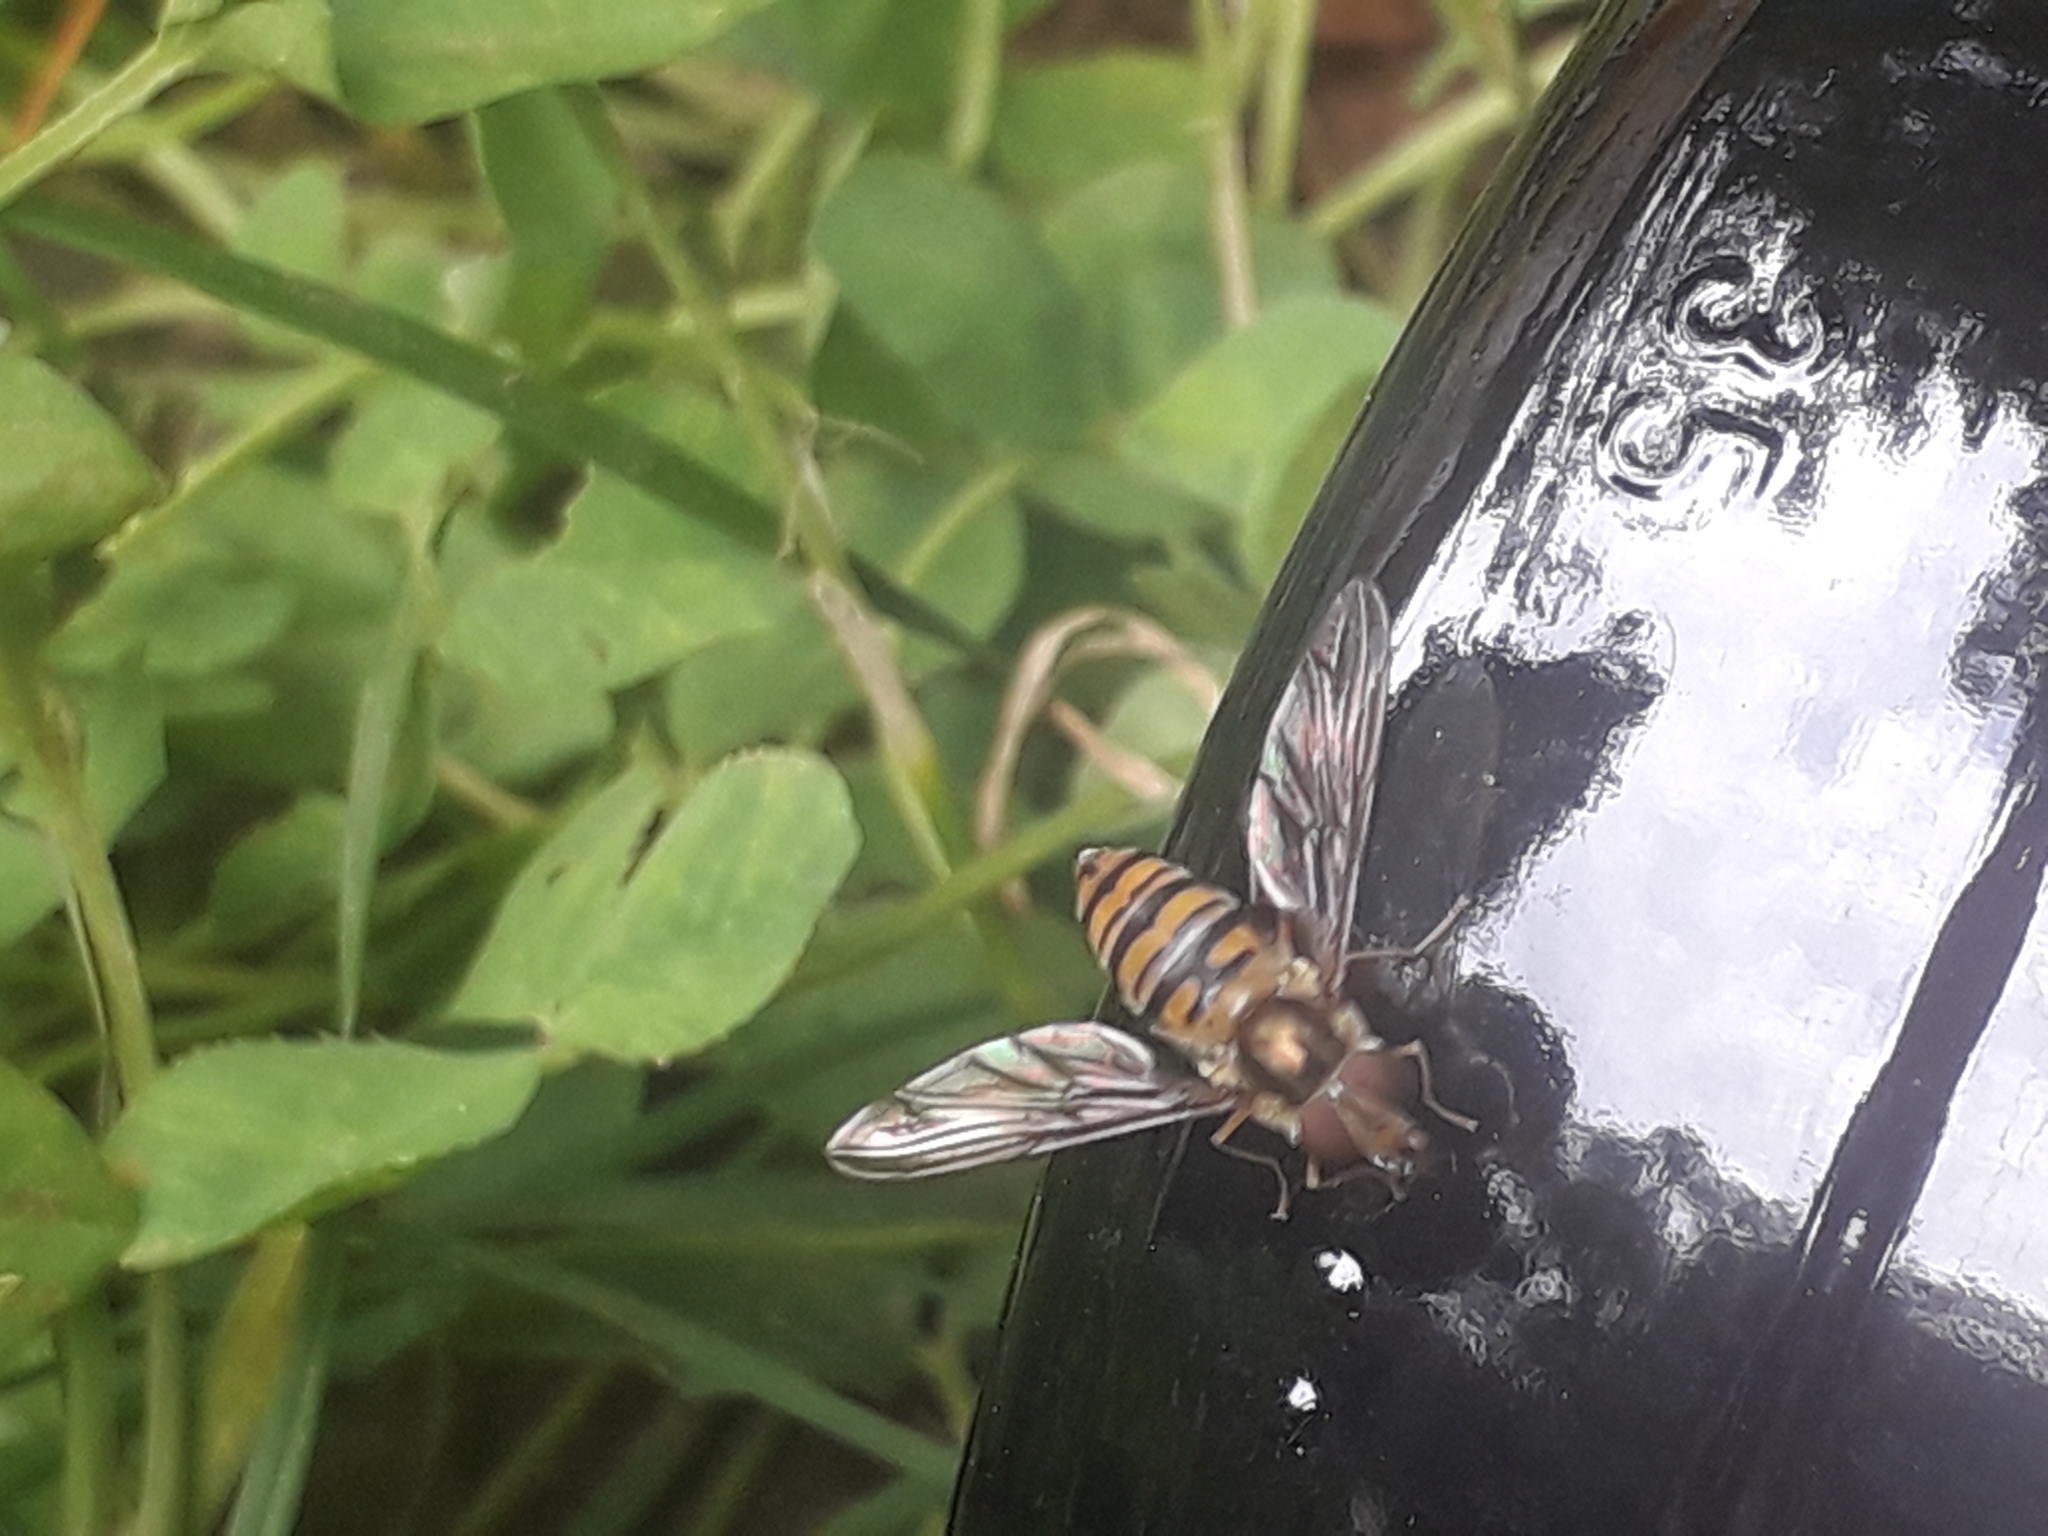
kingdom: Animalia
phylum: Arthropoda
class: Insecta
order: Diptera
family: Syrphidae
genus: Episyrphus
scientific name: Episyrphus balteatus
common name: Marmalade hoverfly
